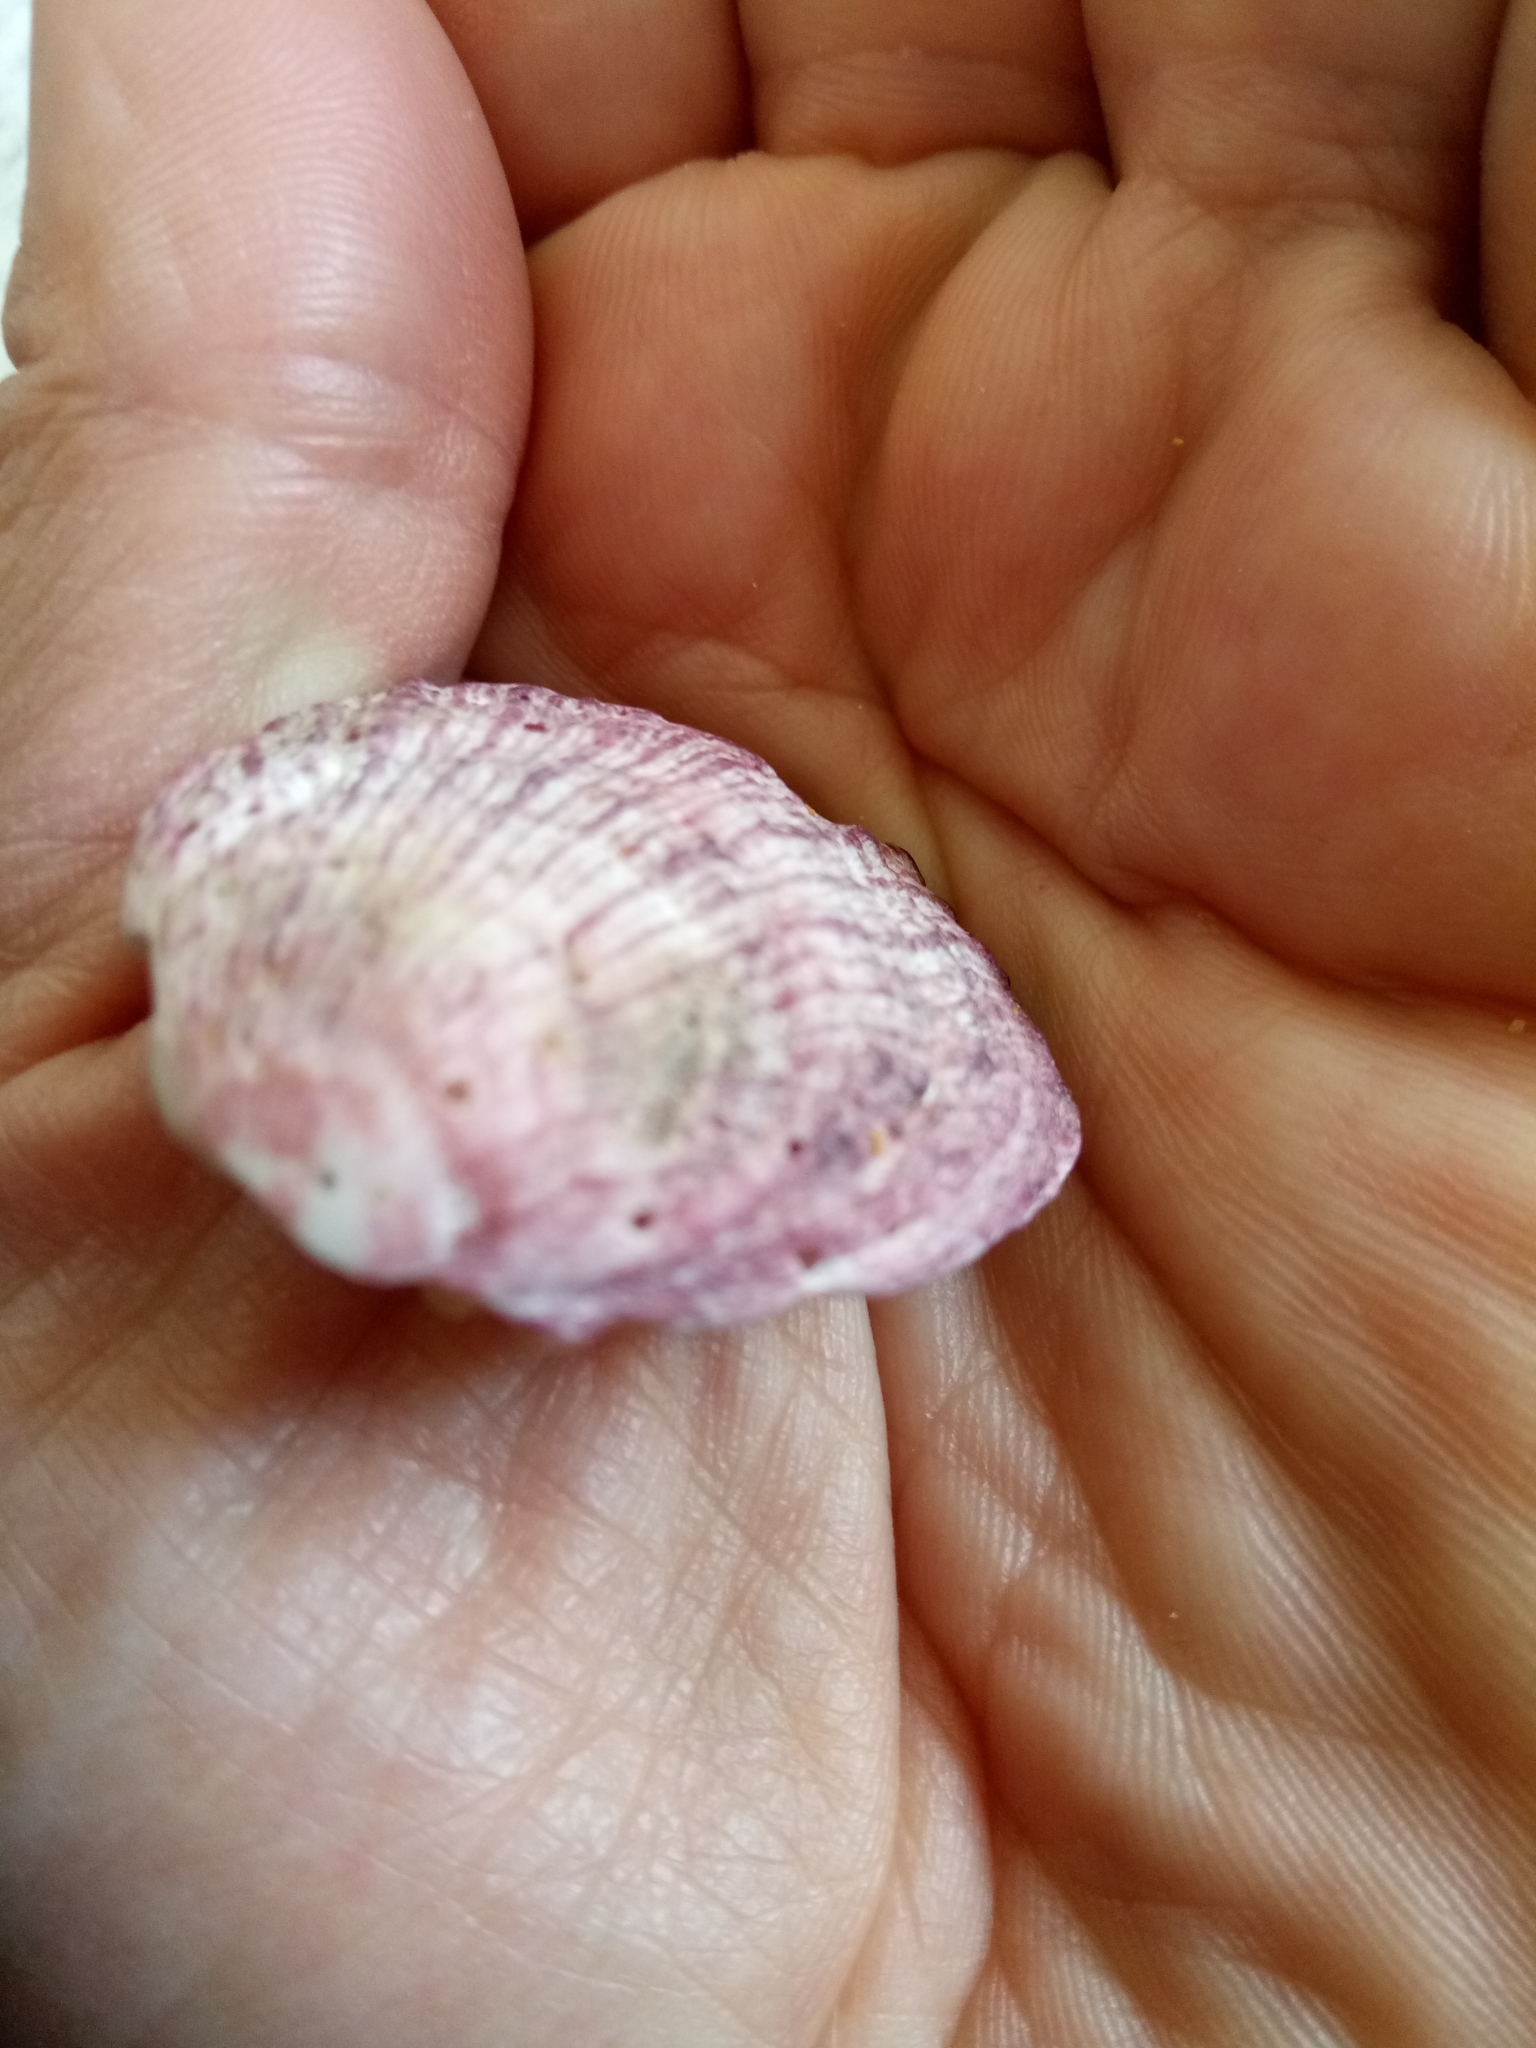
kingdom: Animalia
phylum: Mollusca
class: Bivalvia
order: Pectinida
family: Spondylidae
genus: Spondylus
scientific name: Spondylus gaederopus
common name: European thorny oyster
